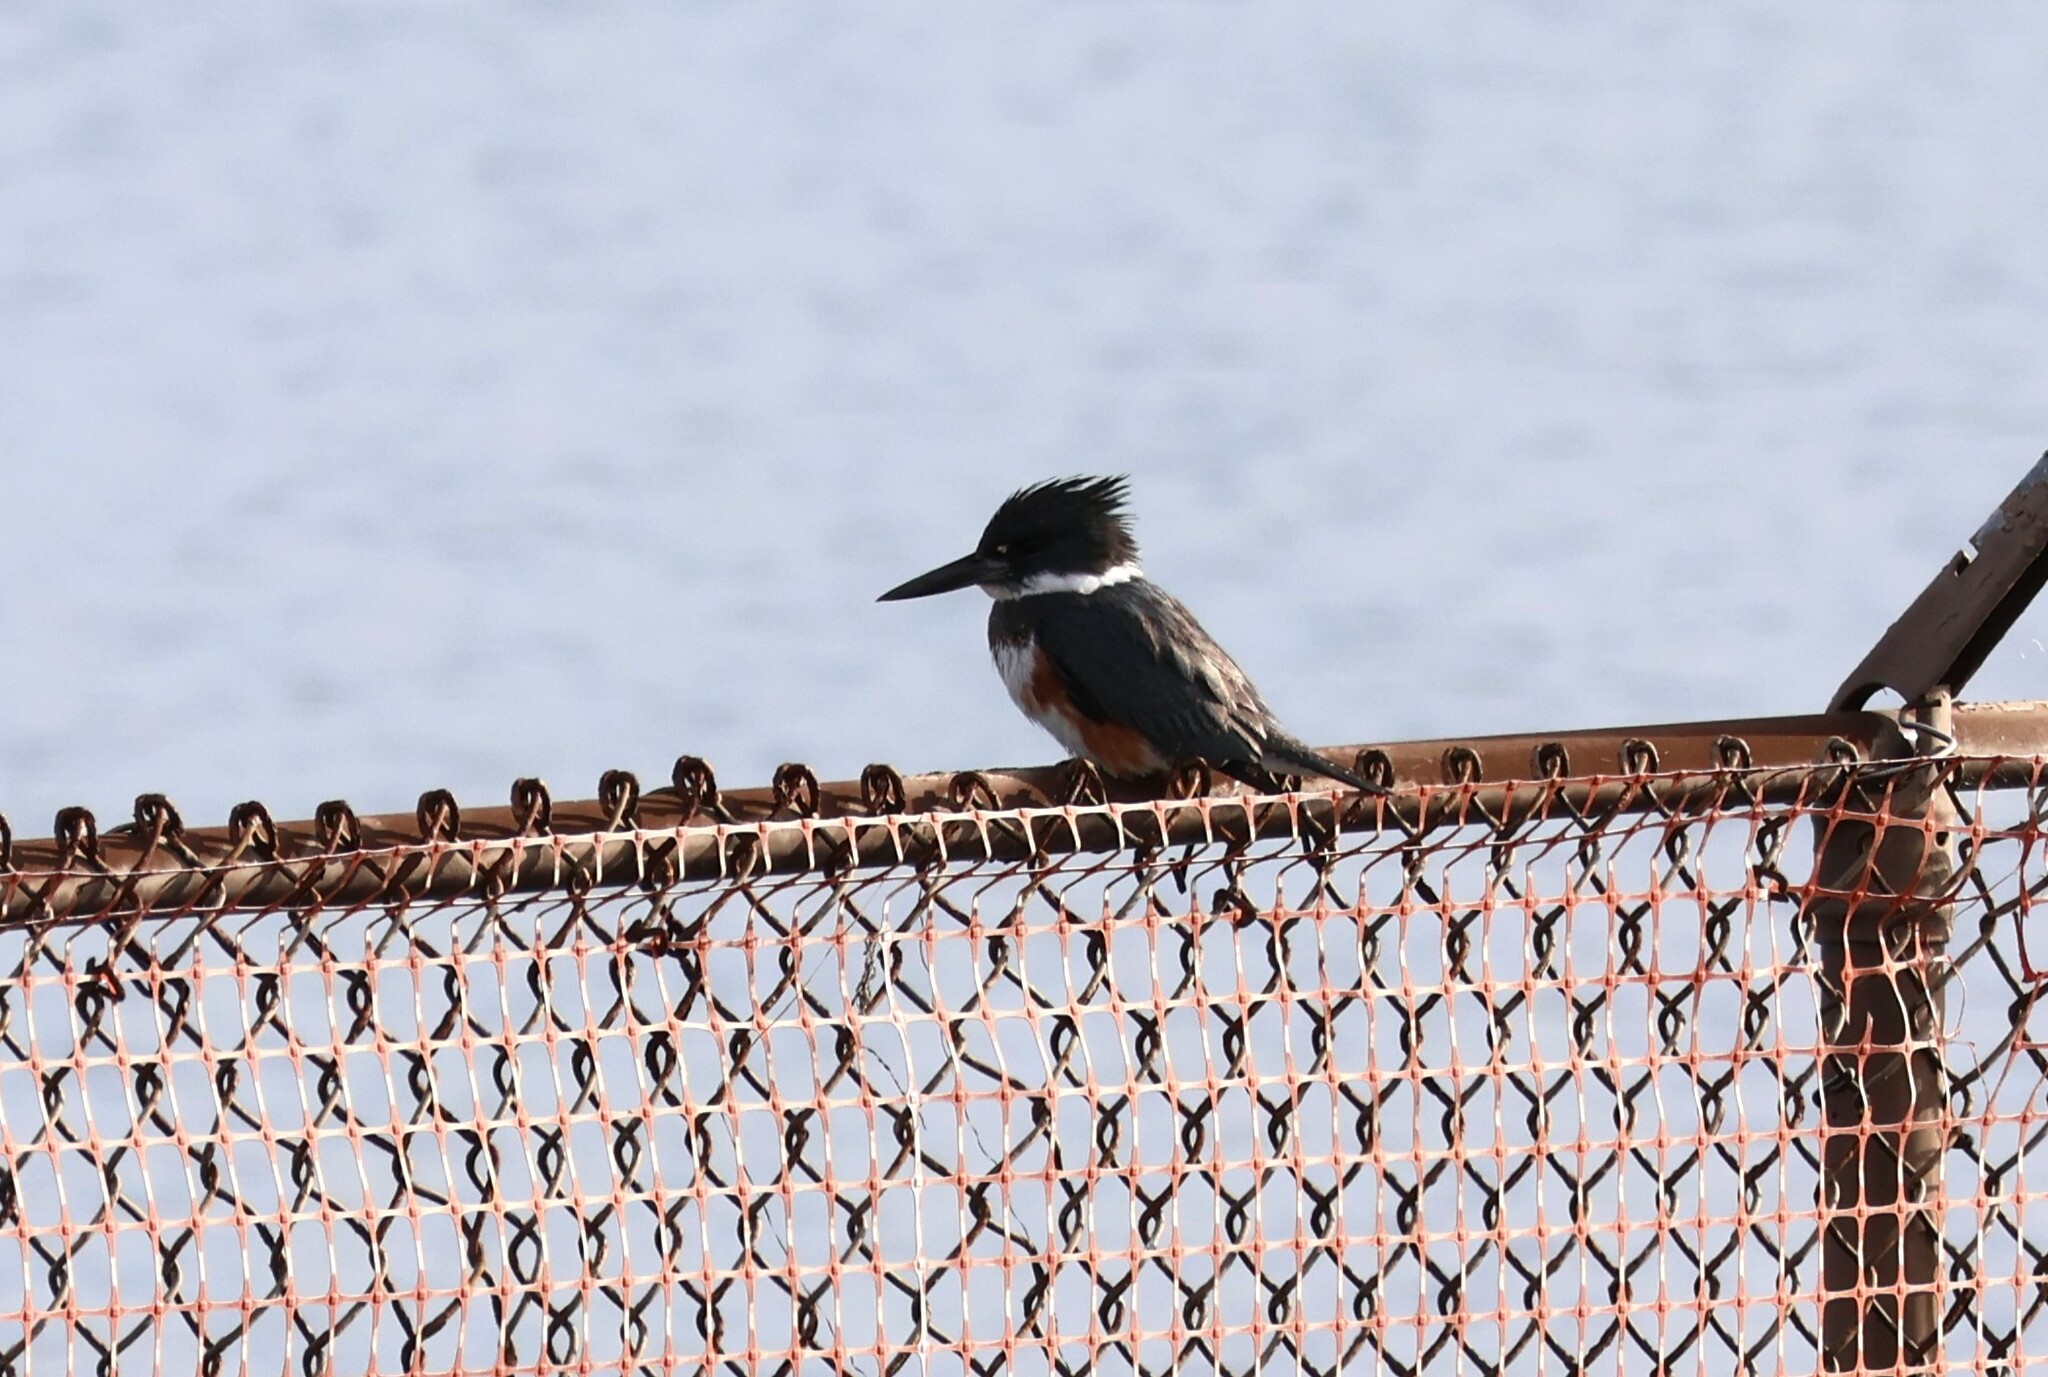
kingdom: Animalia
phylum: Chordata
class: Aves
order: Coraciiformes
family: Alcedinidae
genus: Megaceryle
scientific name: Megaceryle alcyon
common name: Belted kingfisher
